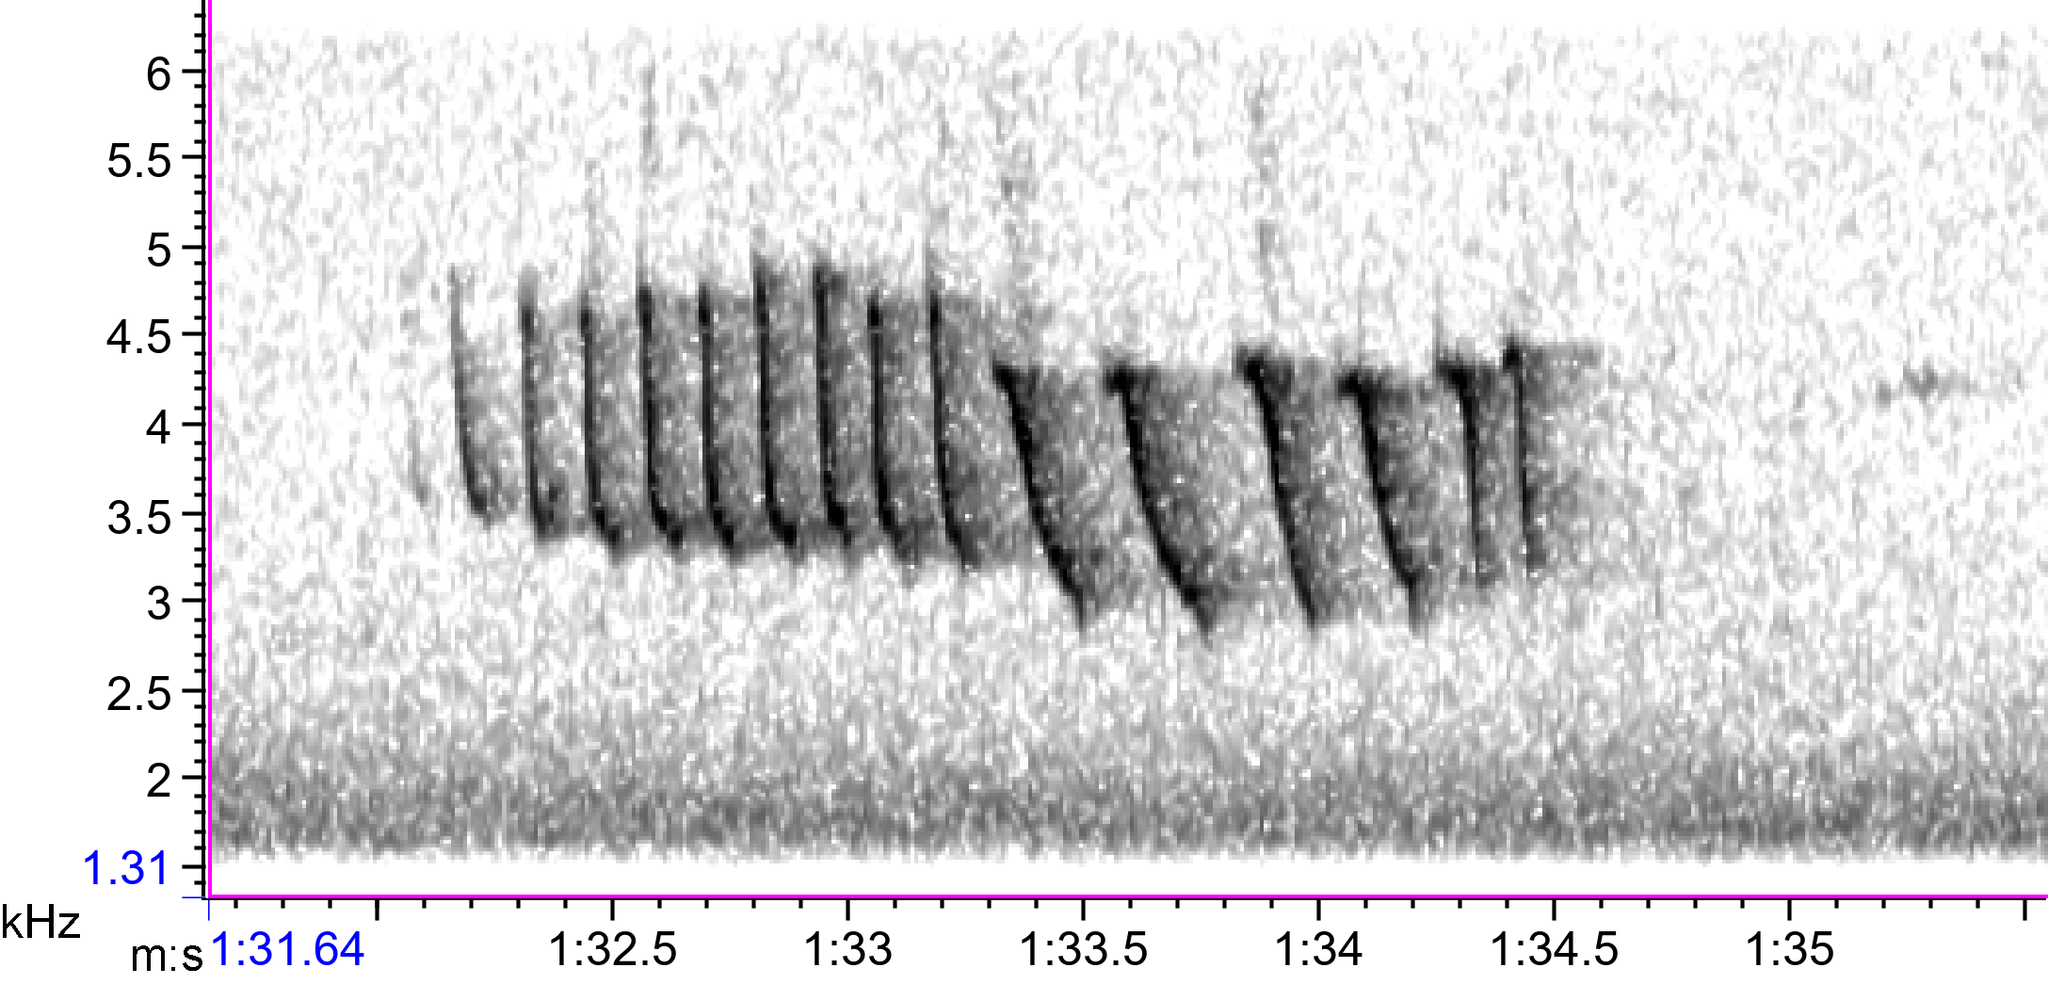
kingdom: Animalia
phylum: Chordata
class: Aves
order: Passeriformes
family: Passerellidae
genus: Spizella
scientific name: Spizella pusilla
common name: Field sparrow
